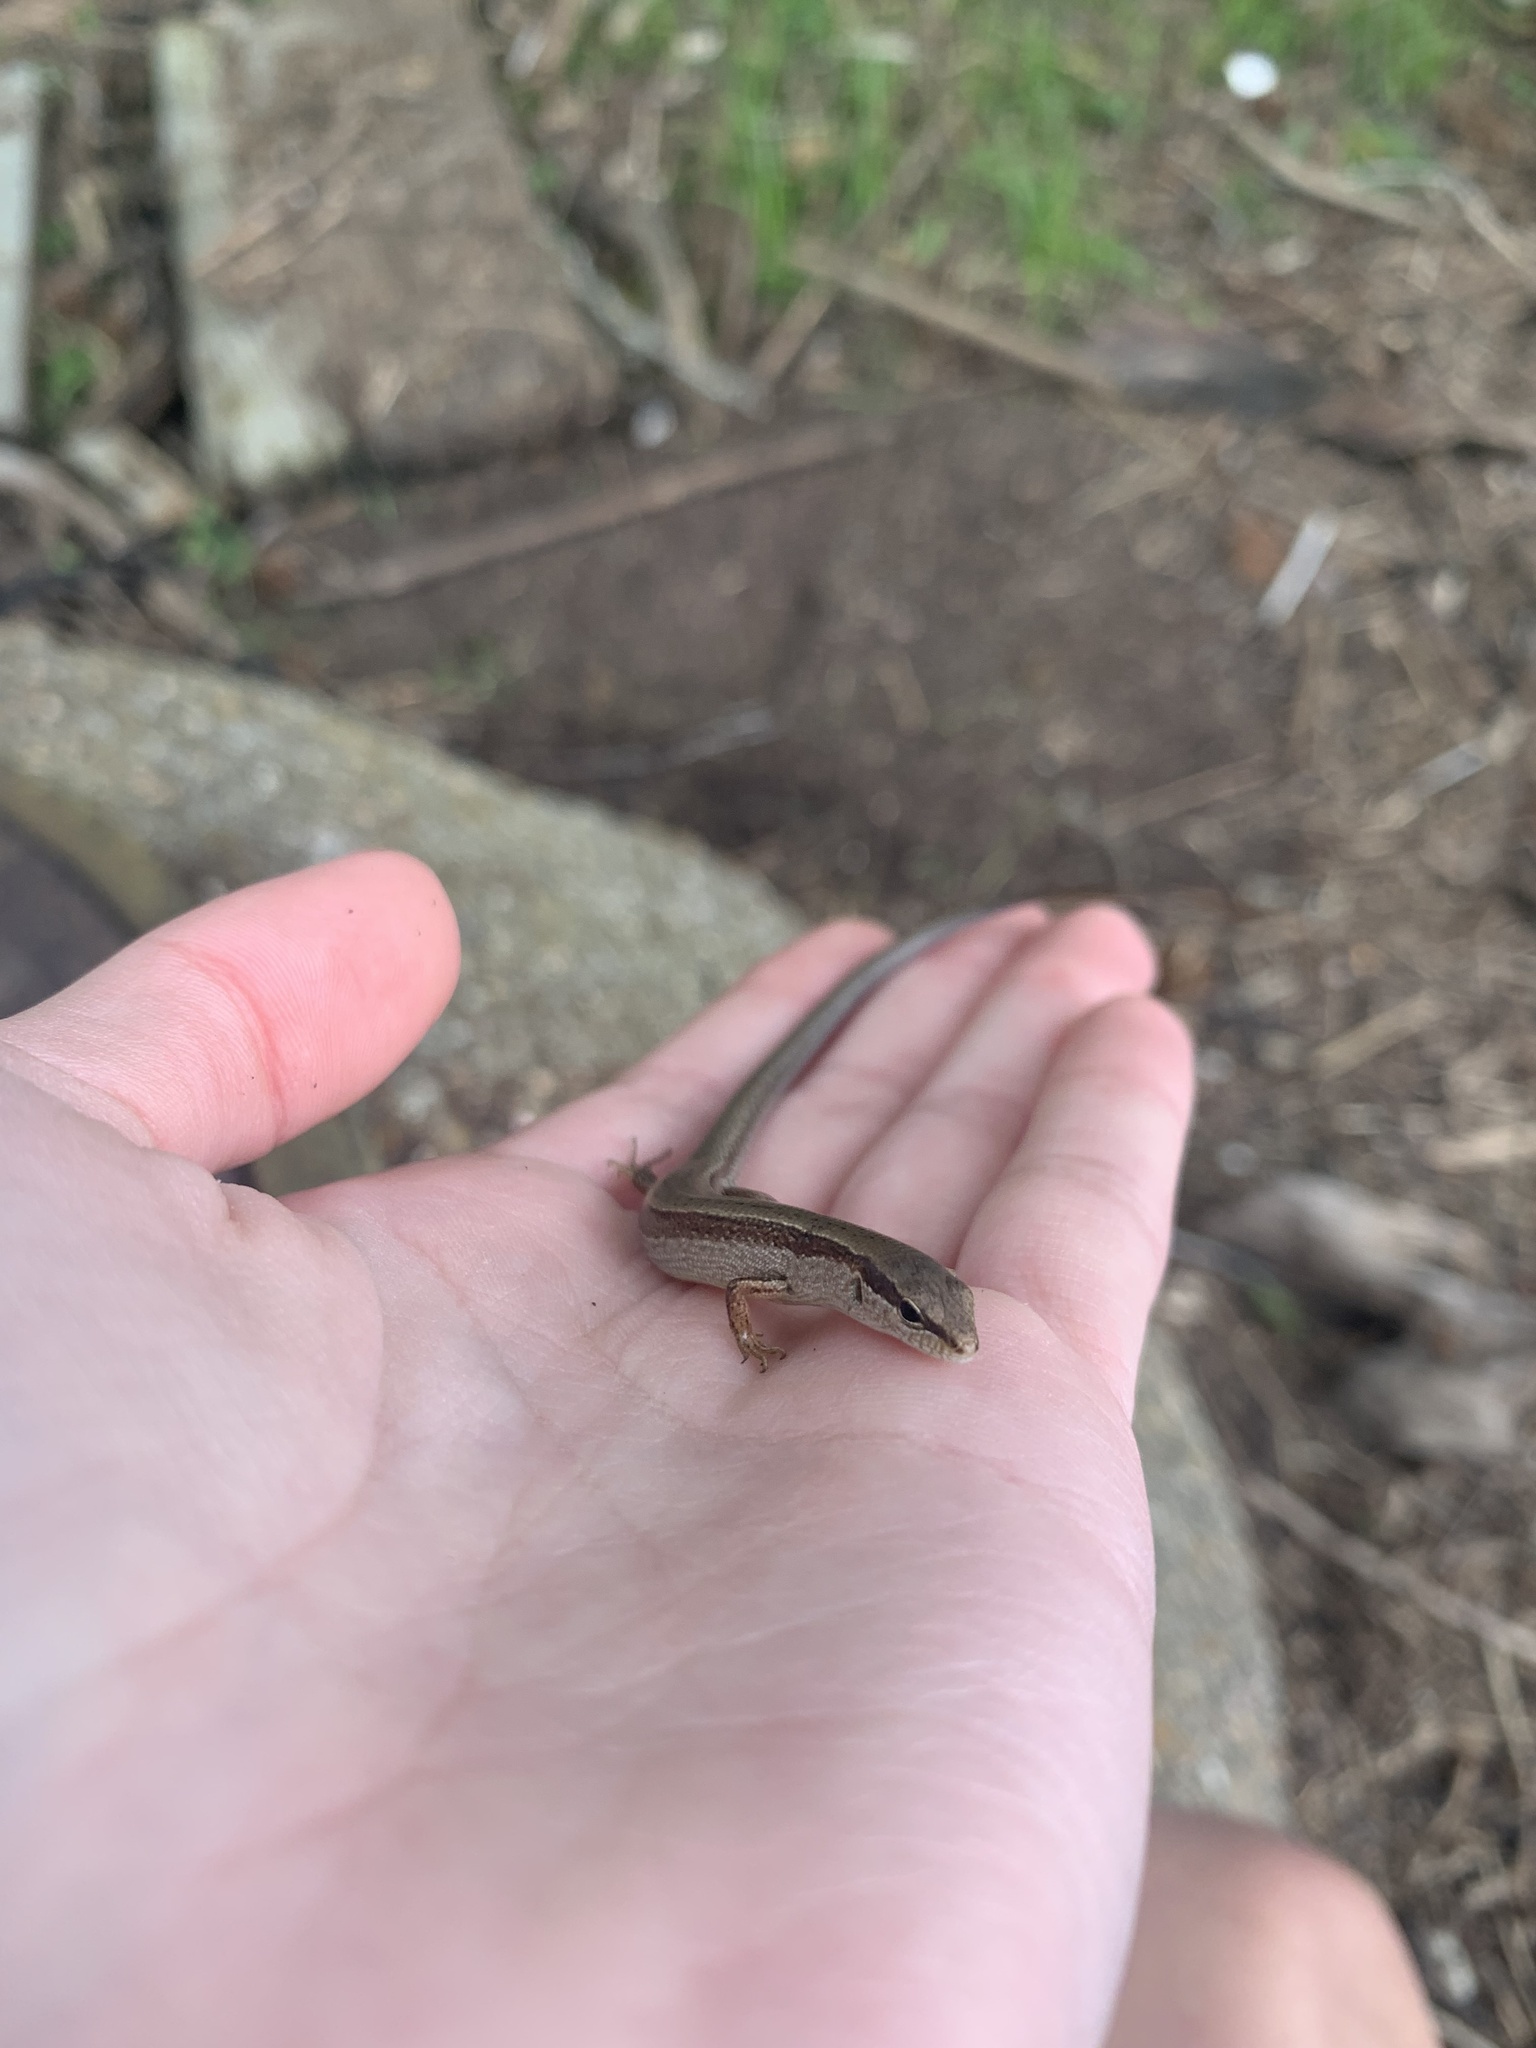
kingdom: Animalia
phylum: Chordata
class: Squamata
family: Scincidae
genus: Scincella
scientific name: Scincella lateralis
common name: Ground skink
